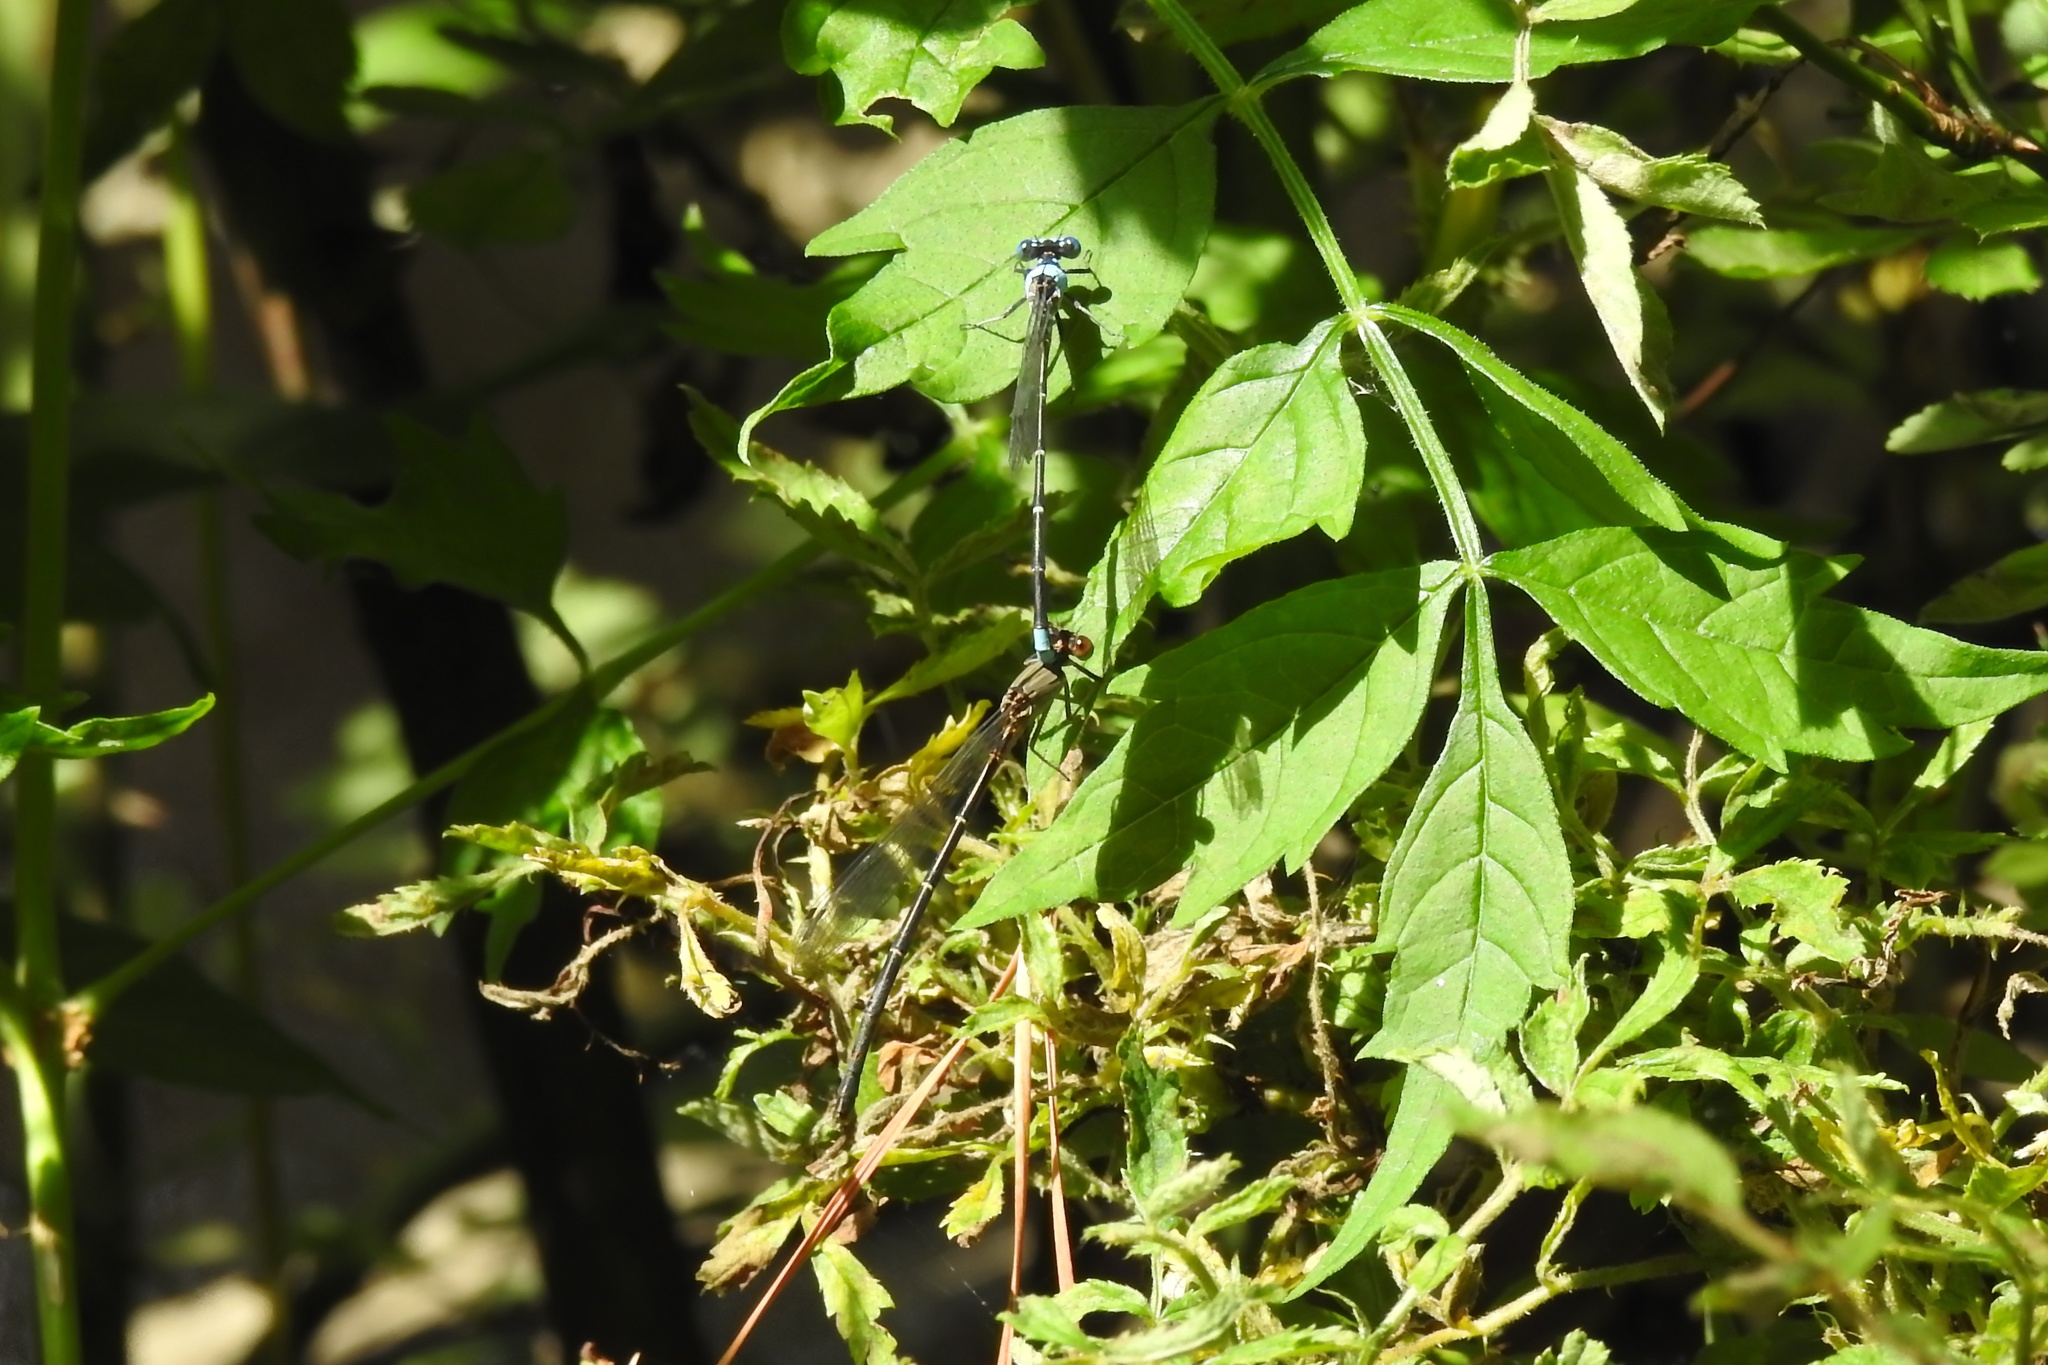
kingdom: Animalia
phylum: Arthropoda
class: Insecta
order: Odonata
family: Coenagrionidae
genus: Argia
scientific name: Argia apicalis
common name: Blue-fronted dancer
